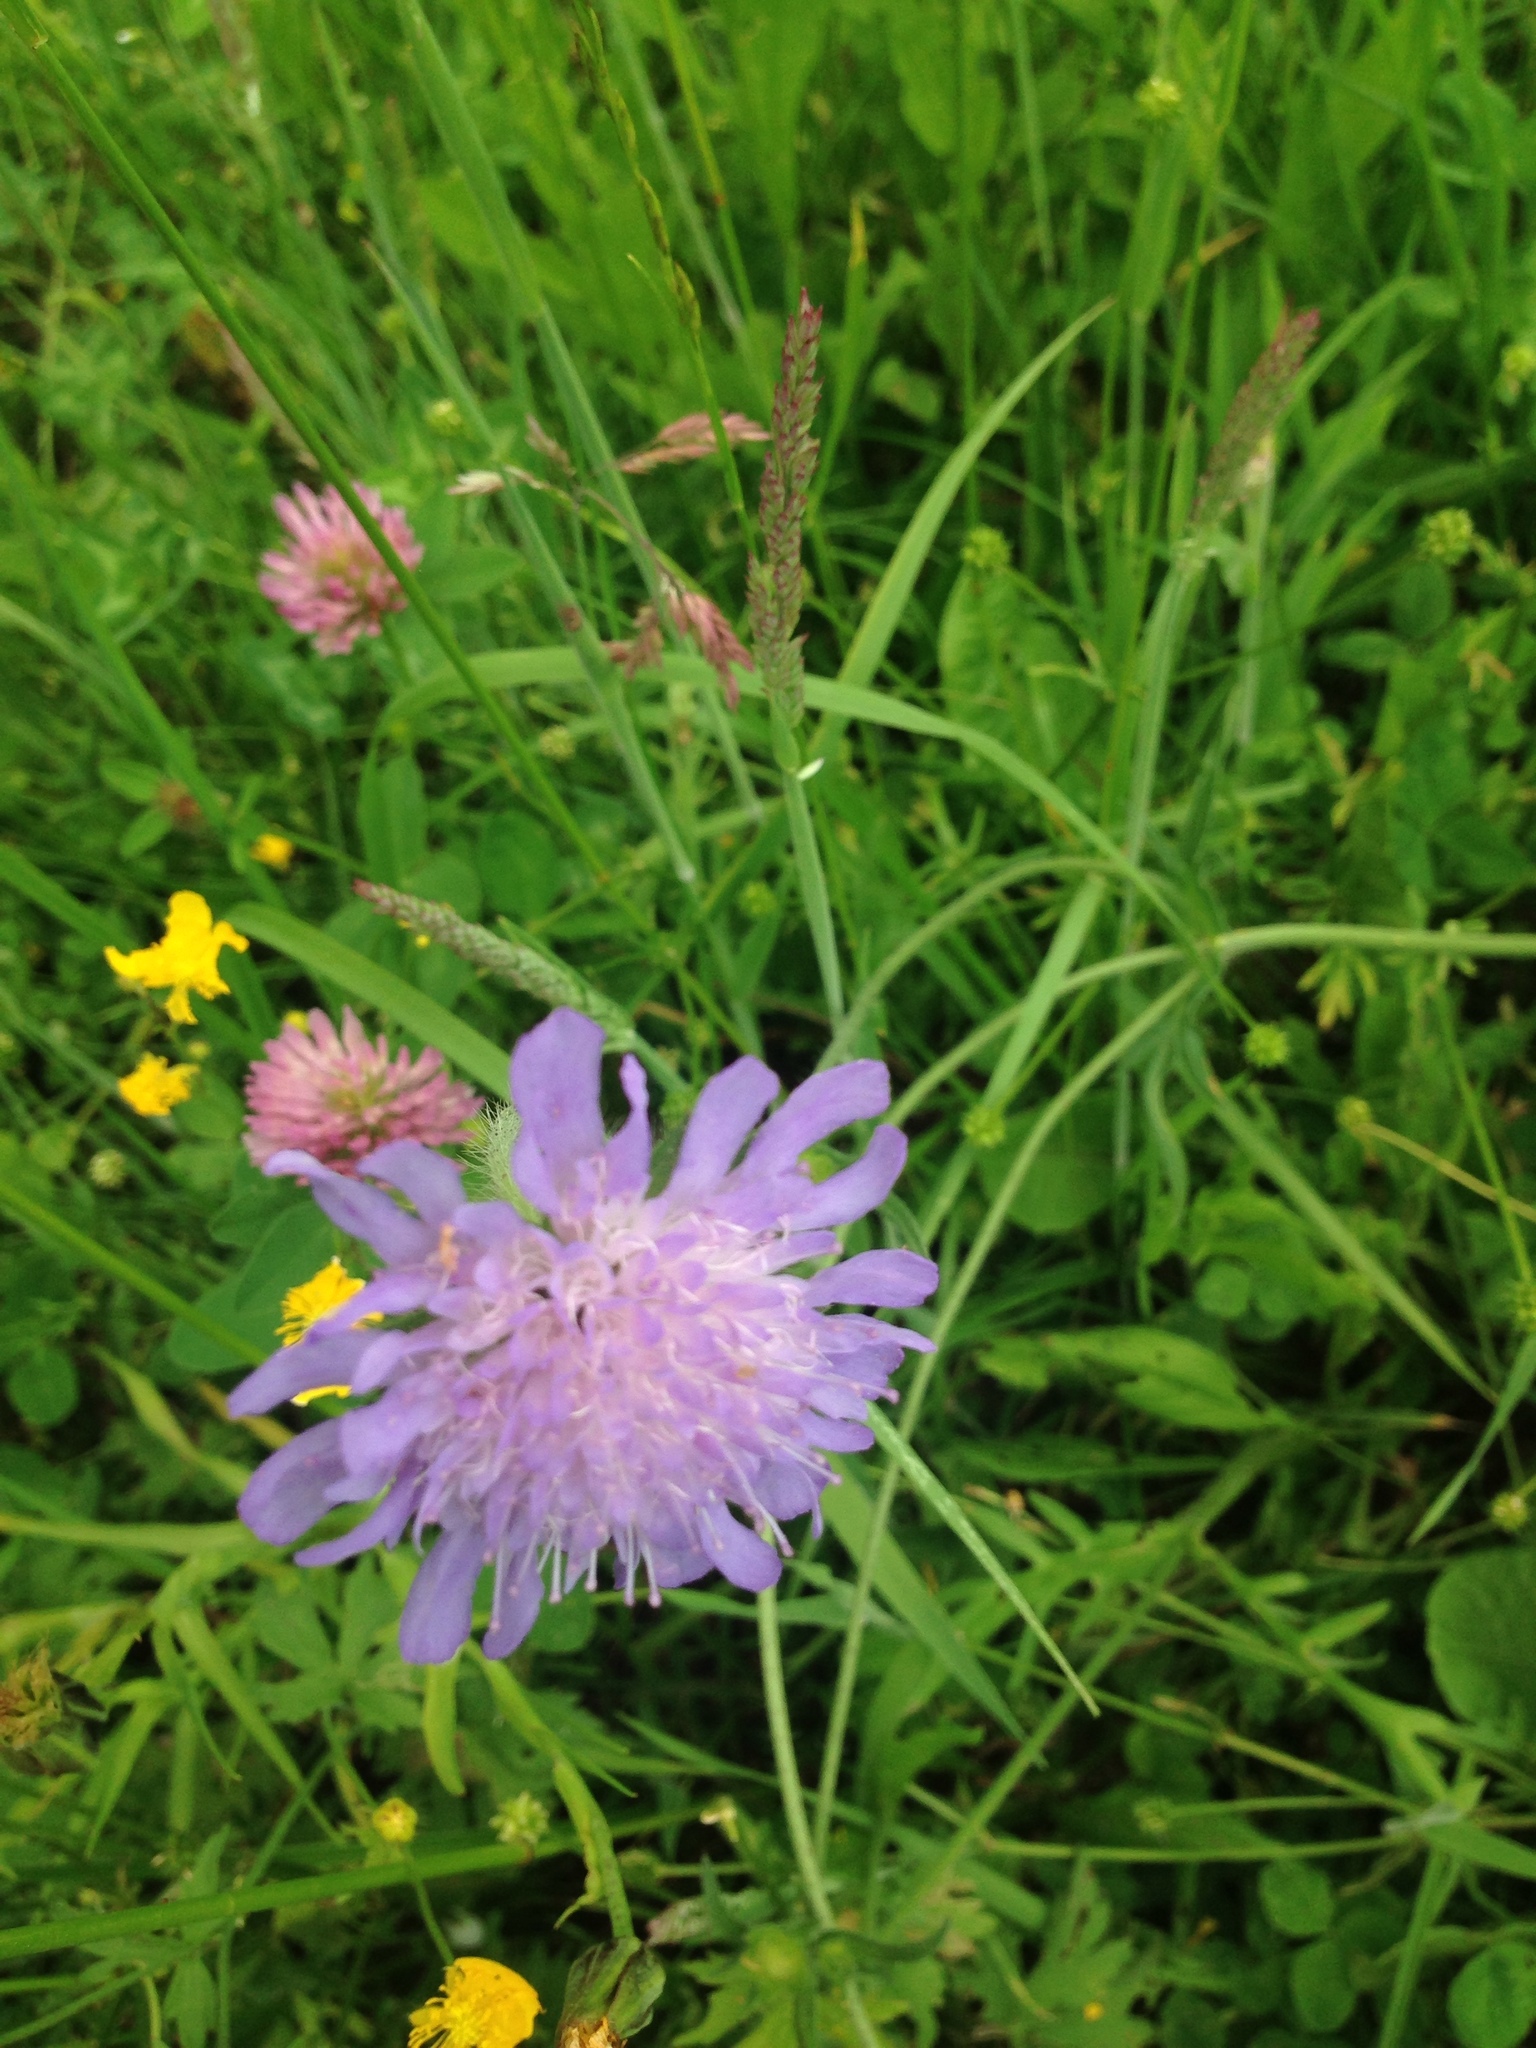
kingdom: Plantae
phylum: Tracheophyta
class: Magnoliopsida
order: Dipsacales
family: Caprifoliaceae
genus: Knautia
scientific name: Knautia arvensis
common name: Field scabiosa
